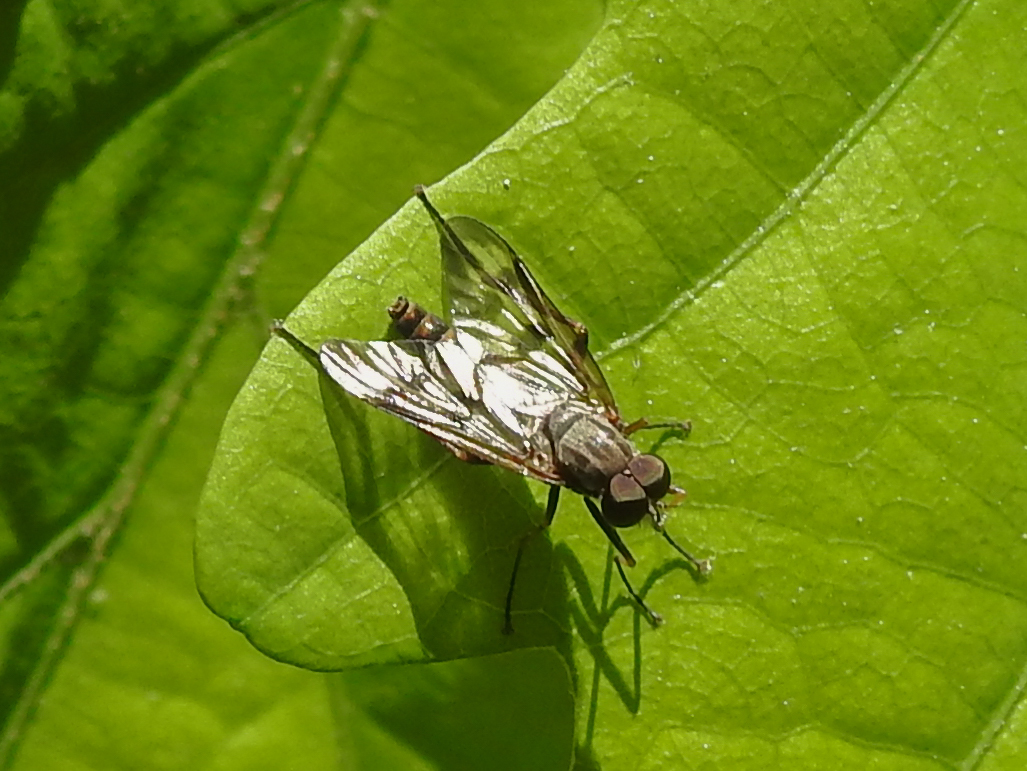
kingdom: Animalia
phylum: Arthropoda
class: Insecta
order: Diptera
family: Rhagionidae
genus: Rhagio
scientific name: Rhagio mystaceus
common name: Common snipe fly
